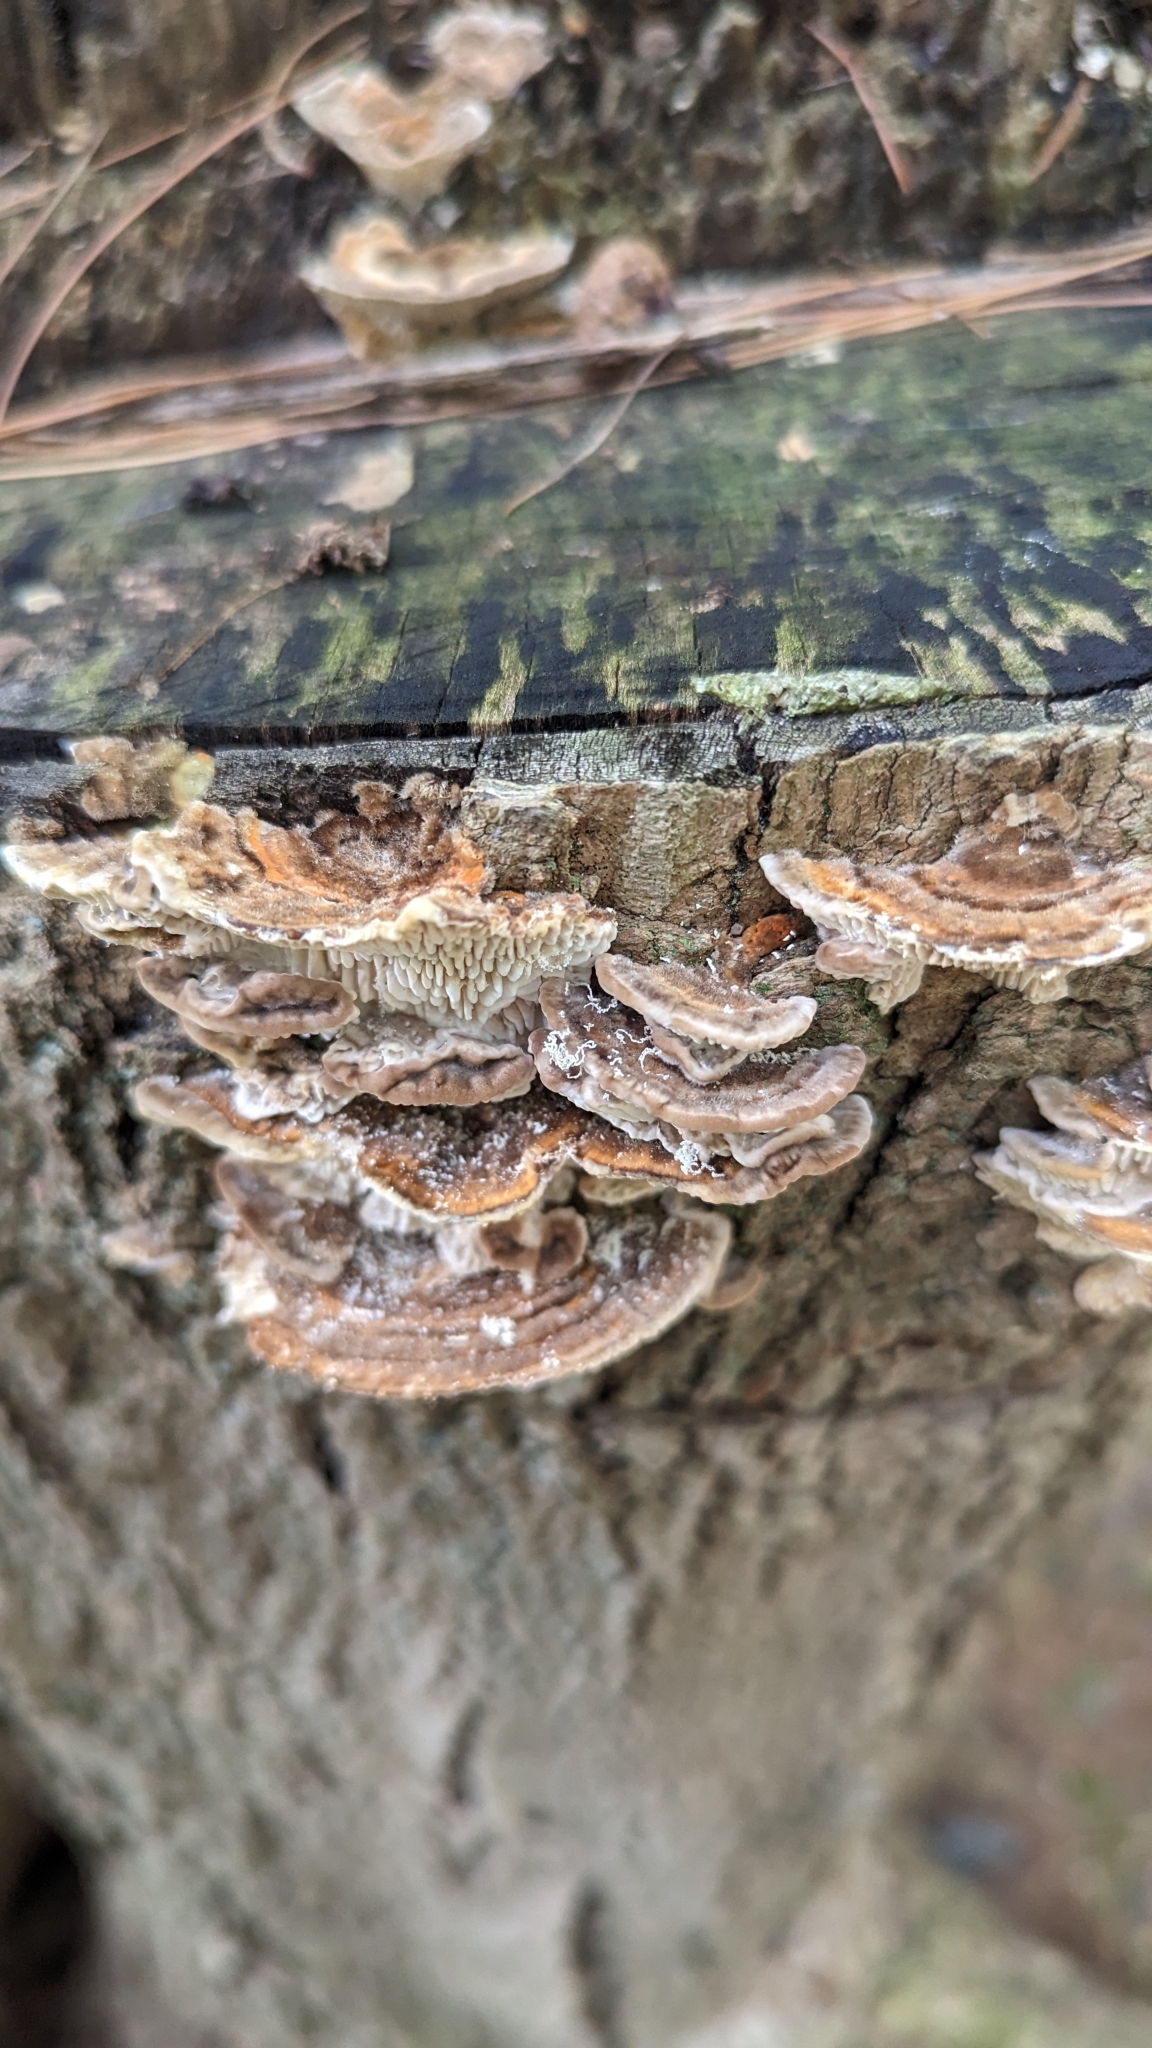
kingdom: Fungi
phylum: Basidiomycota
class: Agaricomycetes
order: Polyporales
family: Polyporaceae
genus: Lenzites
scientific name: Lenzites betulinus
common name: Birch mazegill
